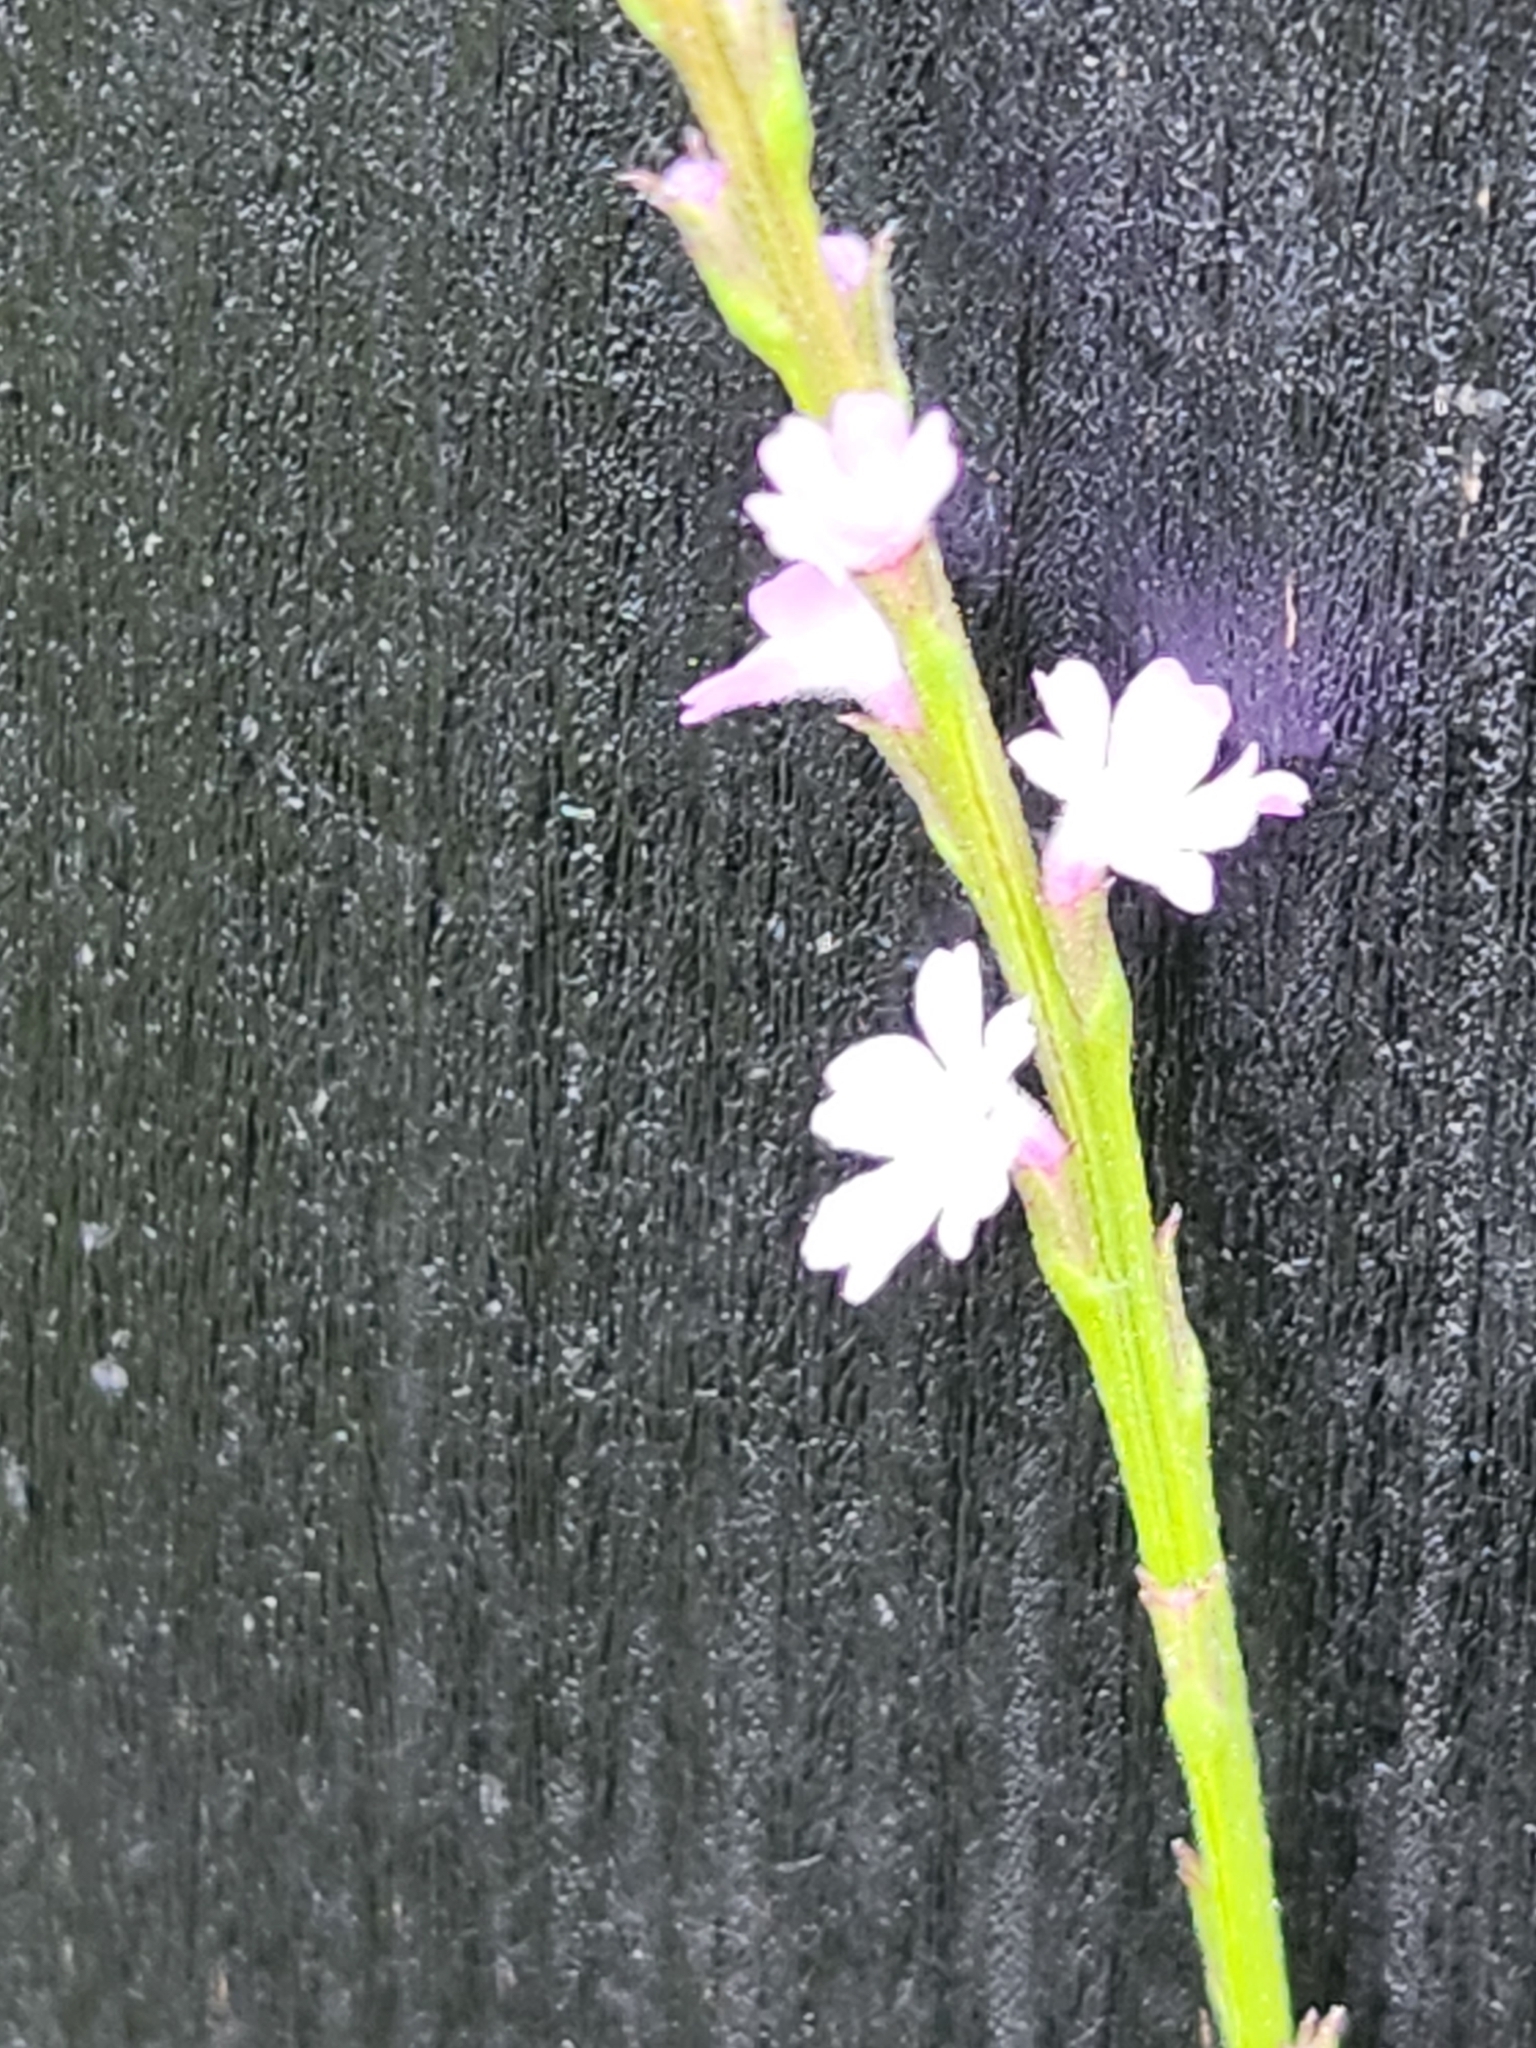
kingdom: Plantae
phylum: Tracheophyta
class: Magnoliopsida
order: Lamiales
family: Verbenaceae
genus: Verbena
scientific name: Verbena halei
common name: Texas vervain
